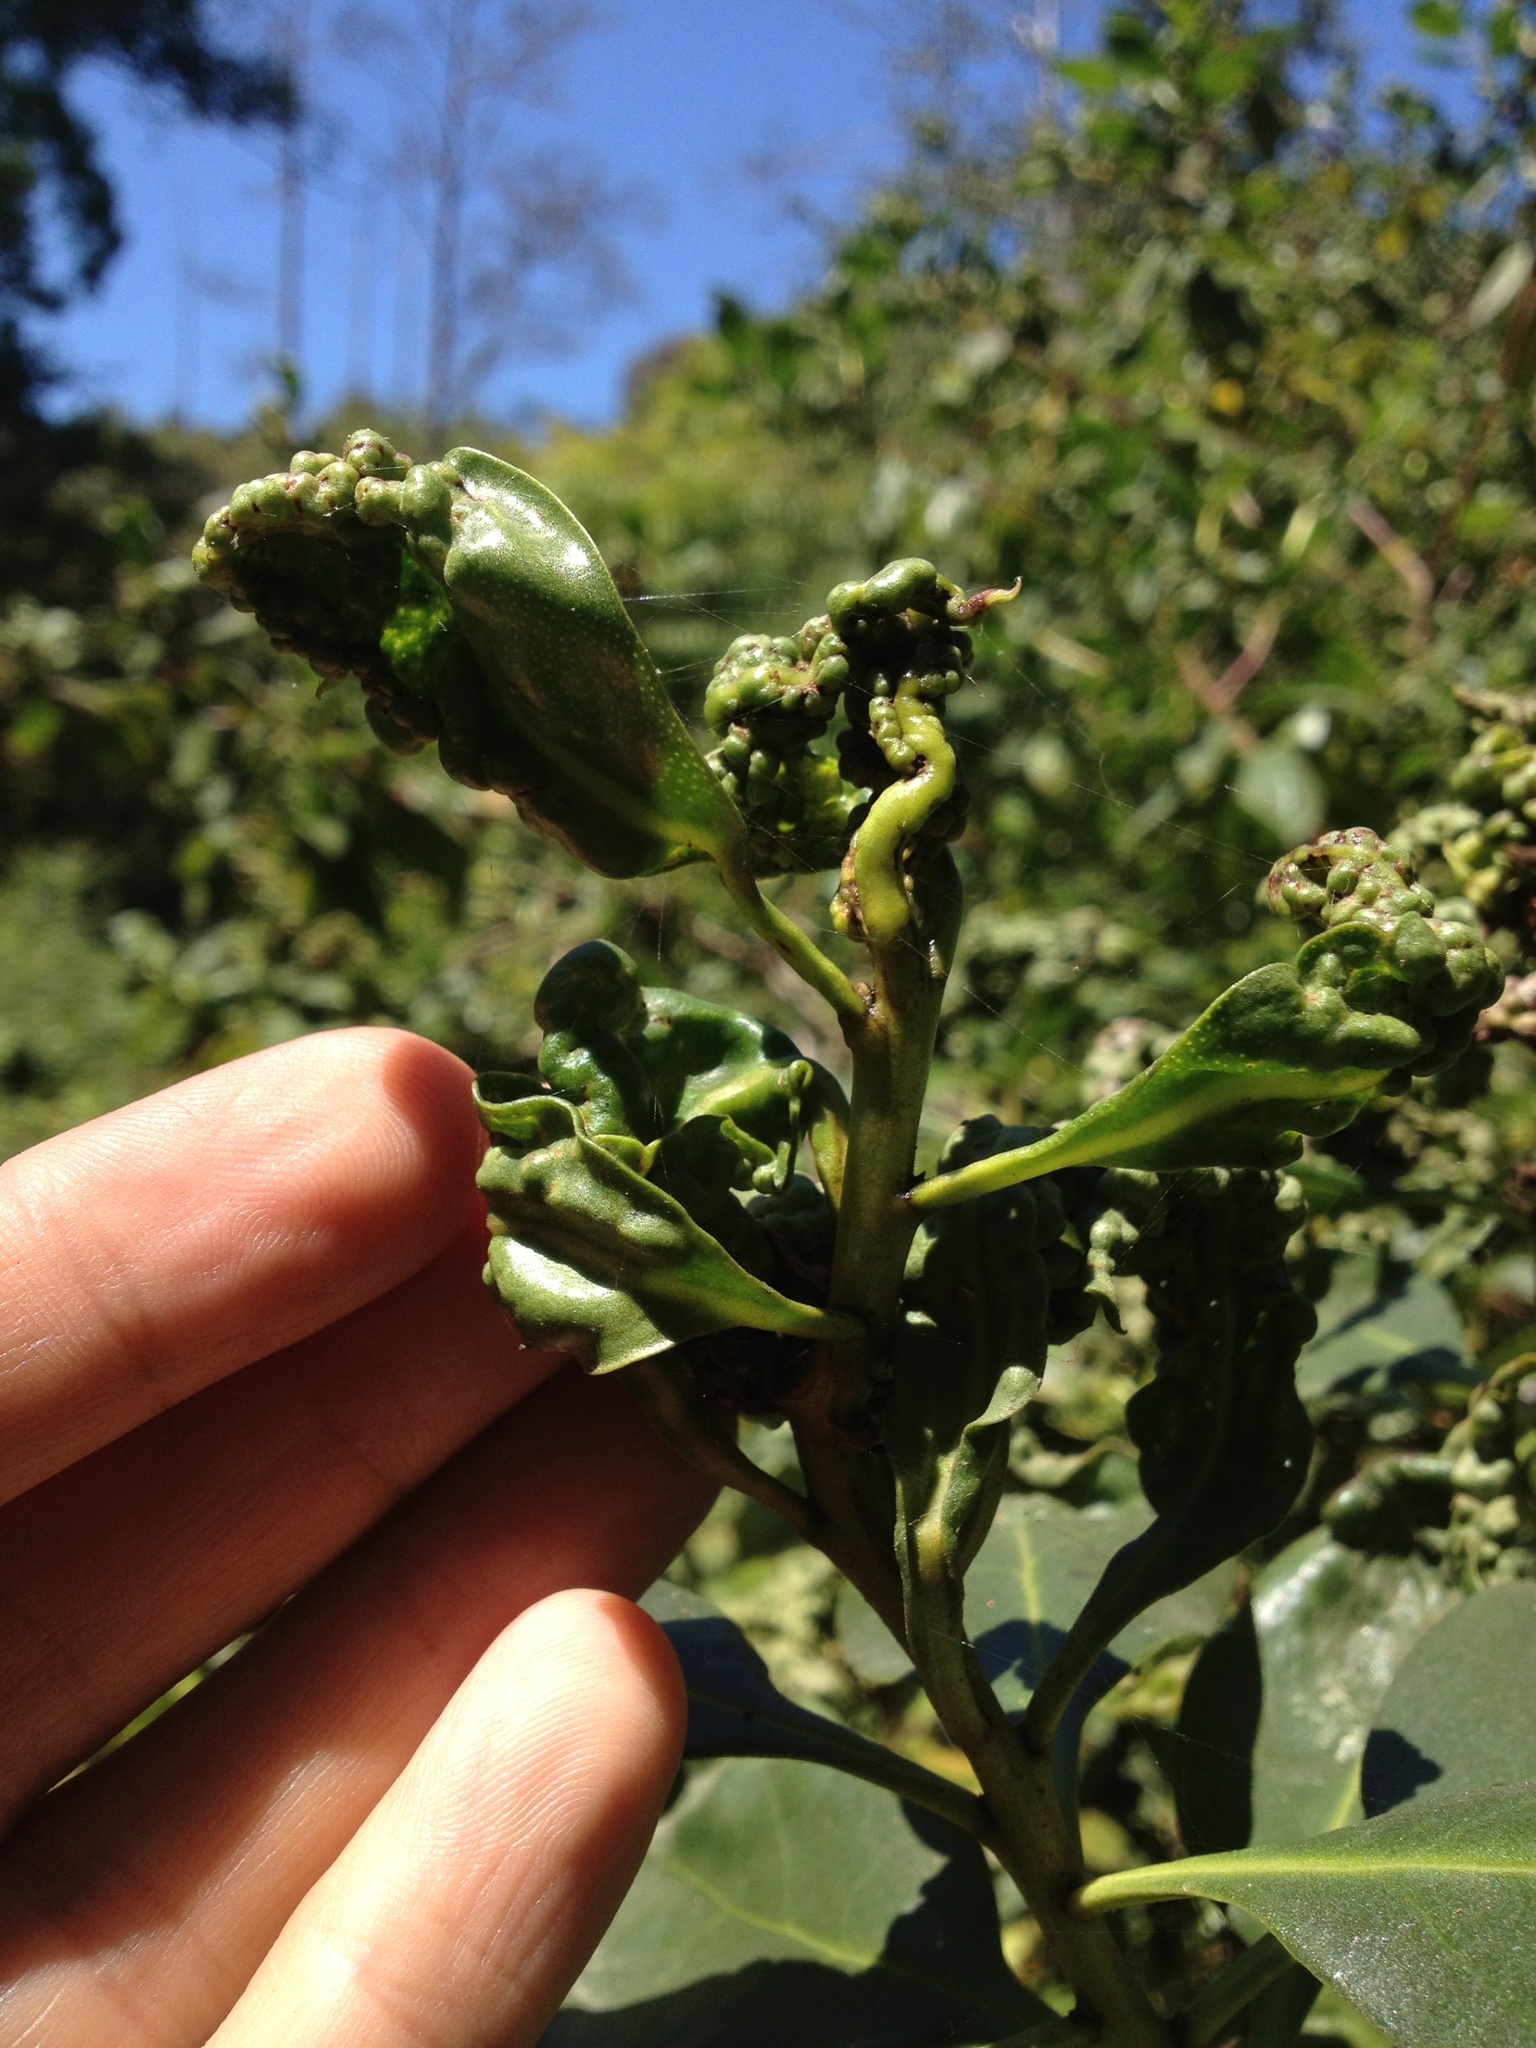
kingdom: Animalia
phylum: Arthropoda
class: Insecta
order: Thysanoptera
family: Phlaeothripidae
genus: Klambothrips
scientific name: Klambothrips myopori
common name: Myoporum thrips
